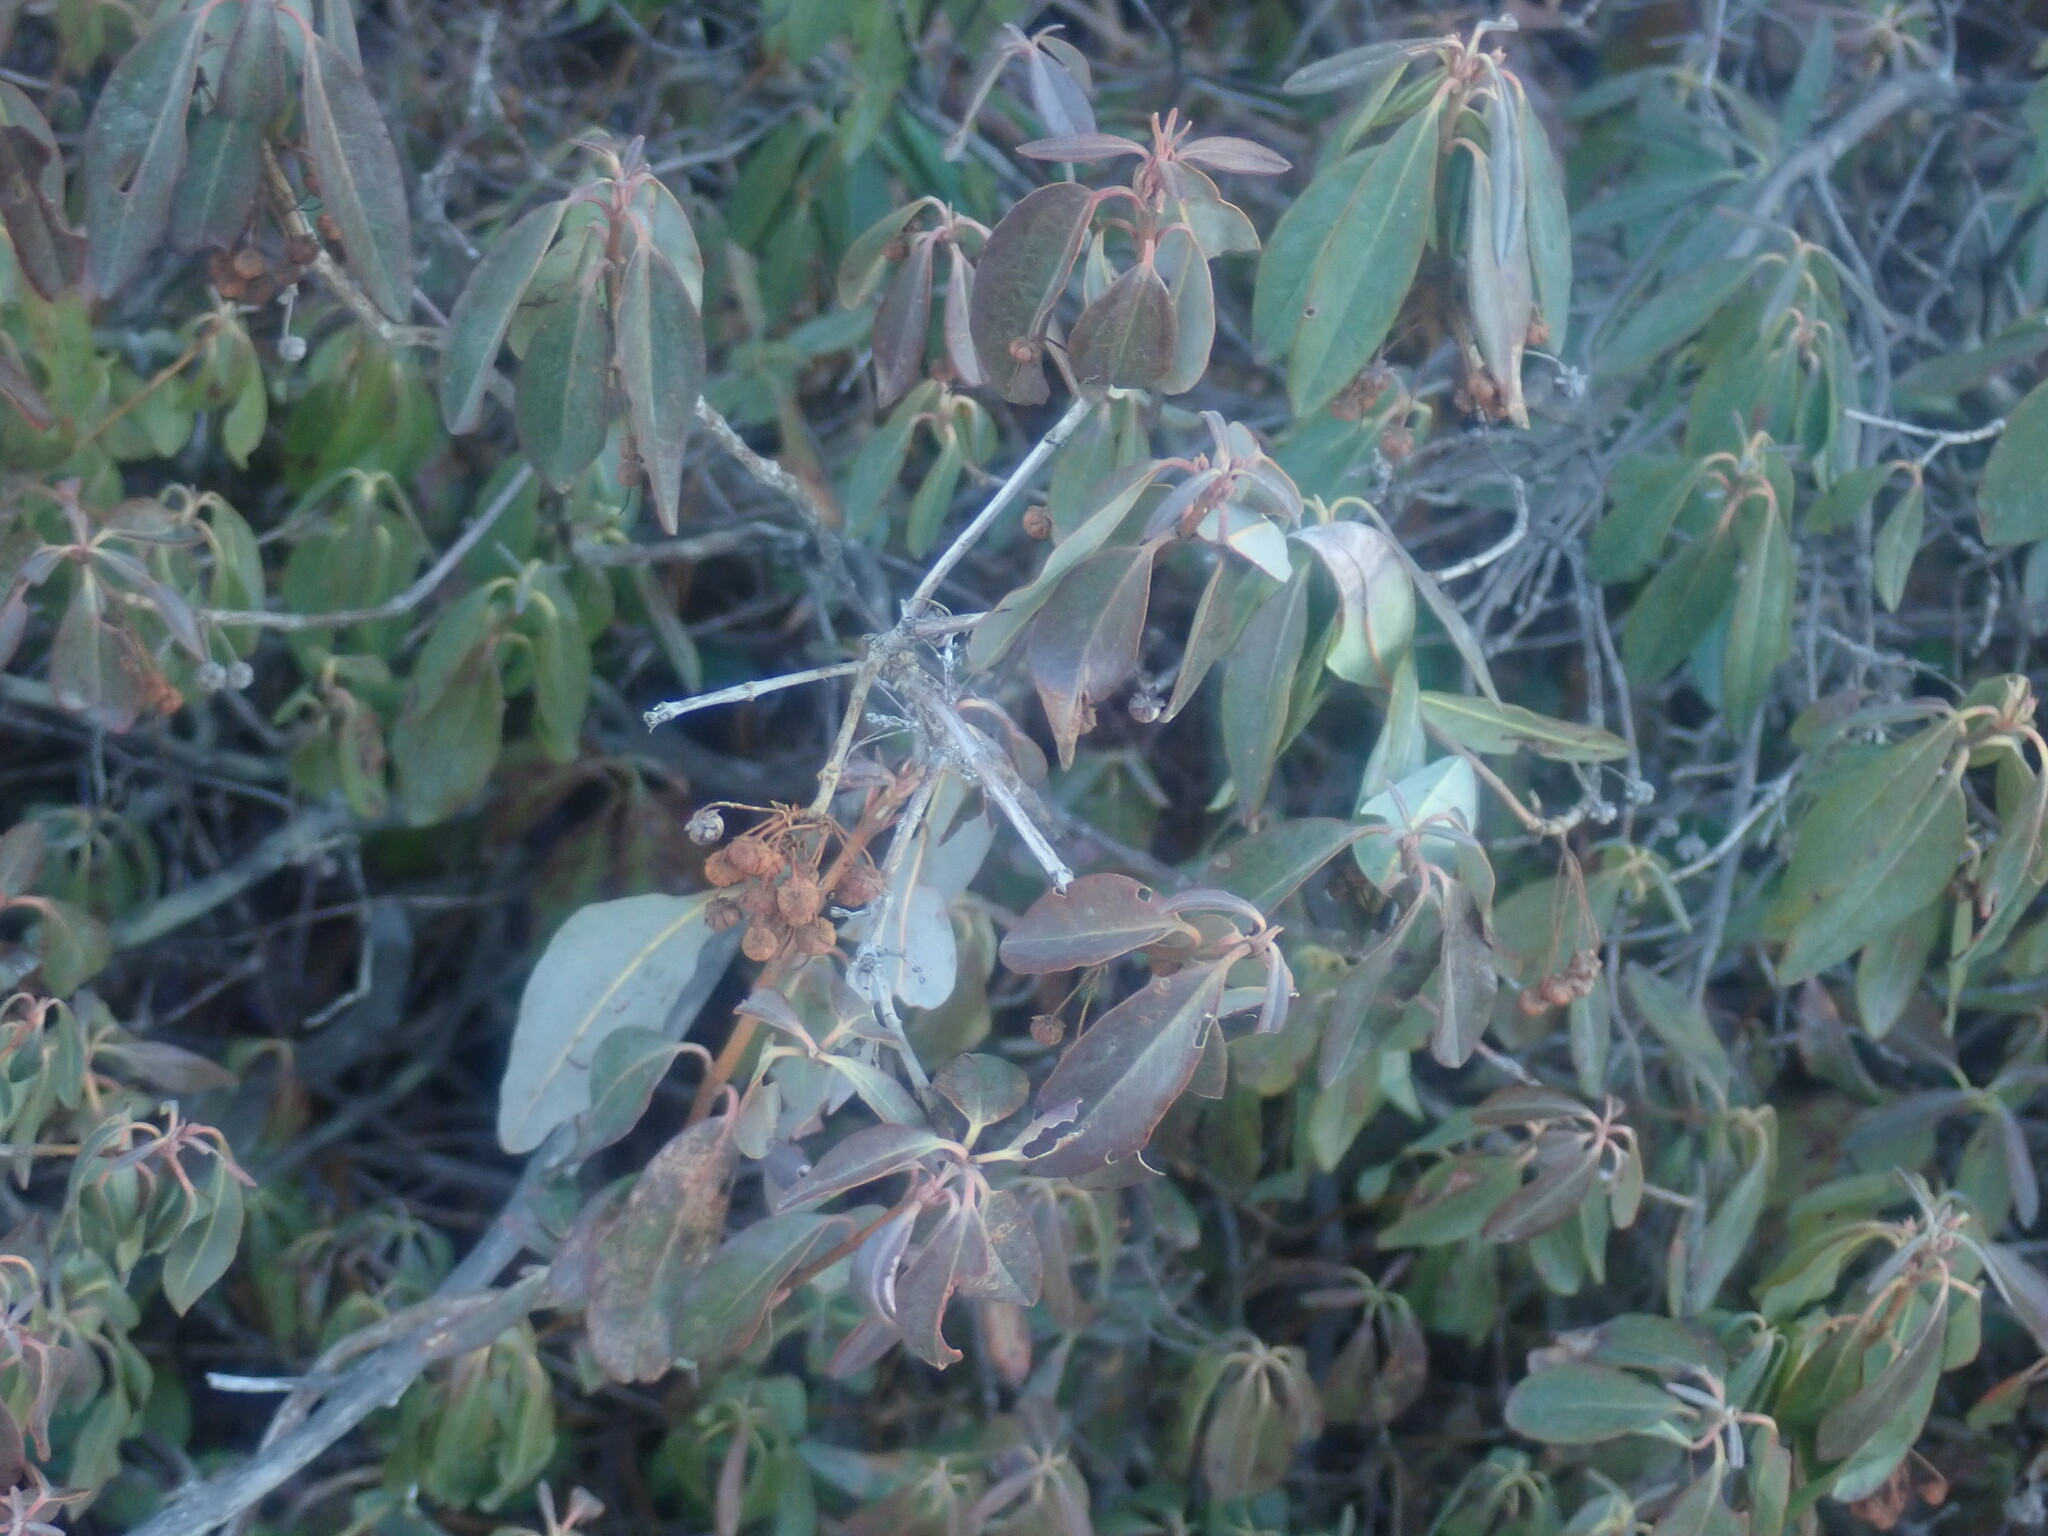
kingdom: Plantae
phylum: Tracheophyta
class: Magnoliopsida
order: Ericales
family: Ericaceae
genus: Kalmia
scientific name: Kalmia angustifolia
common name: Sheep-laurel
